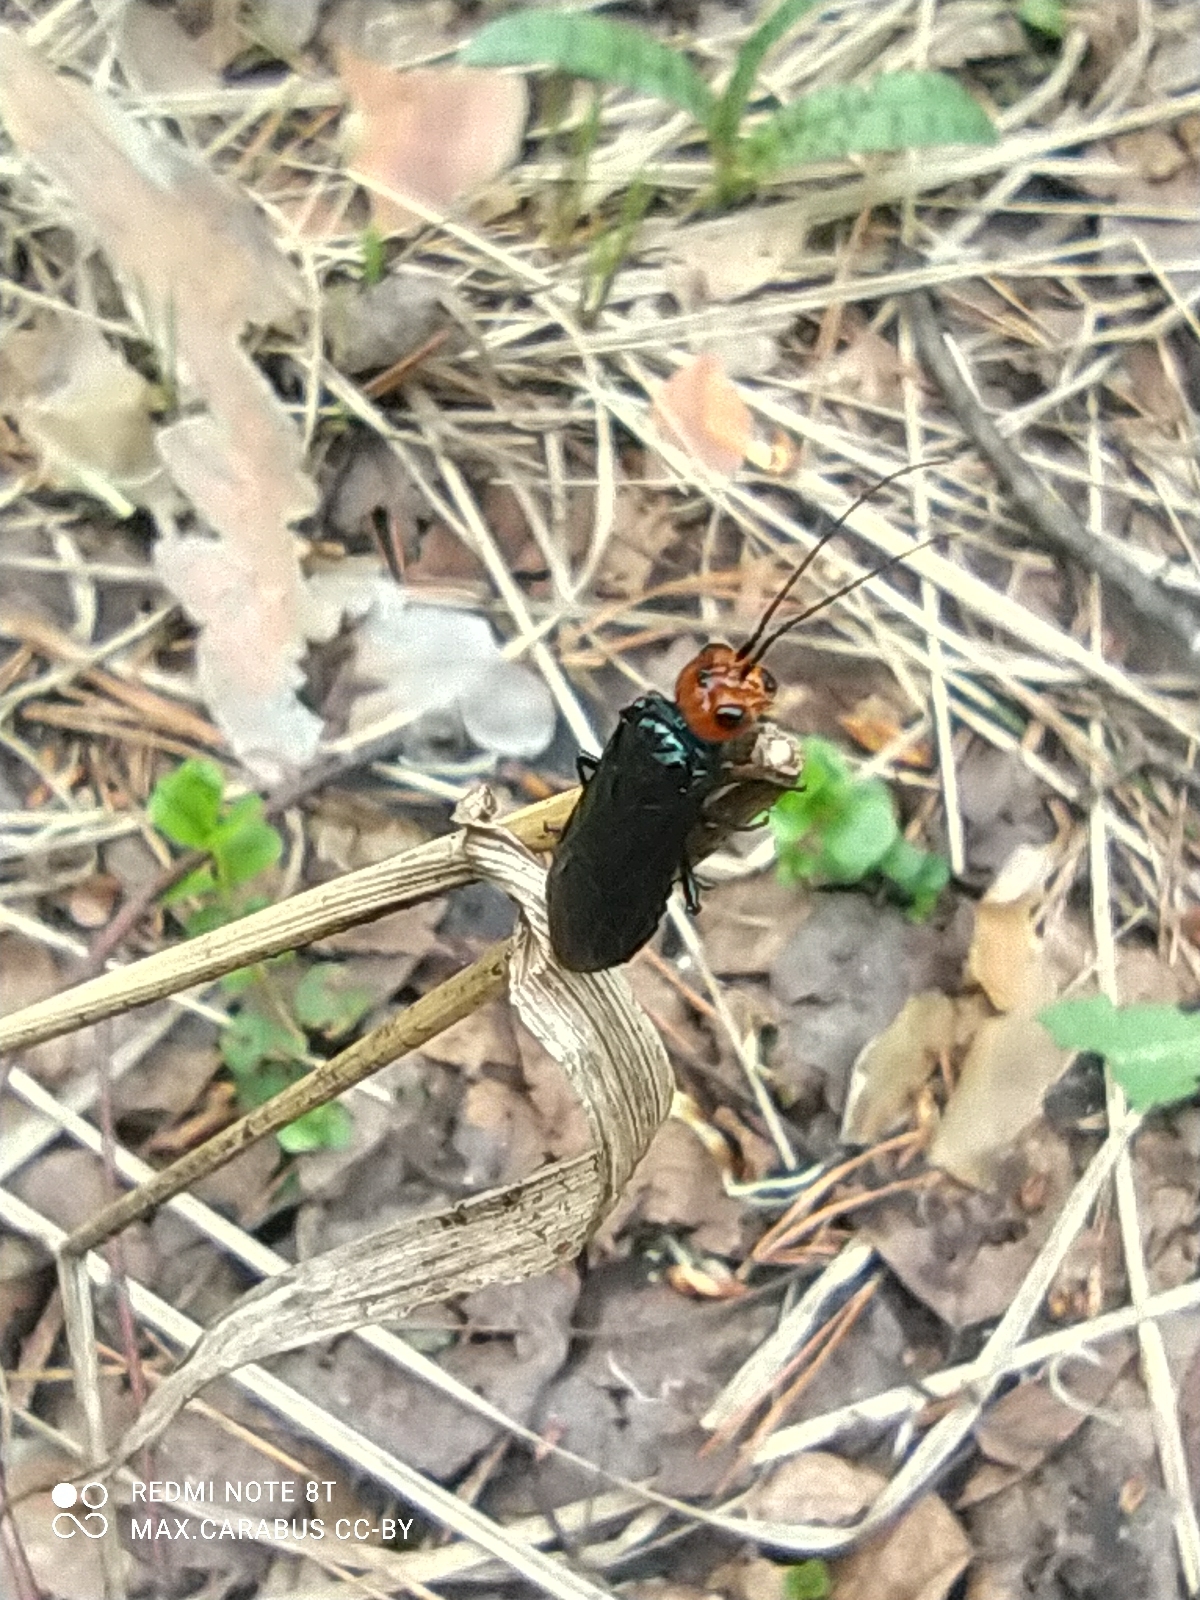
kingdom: Animalia
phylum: Arthropoda
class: Insecta
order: Hymenoptera
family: Pamphiliidae
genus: Acantholyda
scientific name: Acantholyda erythrocephala
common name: Pine false webworm
